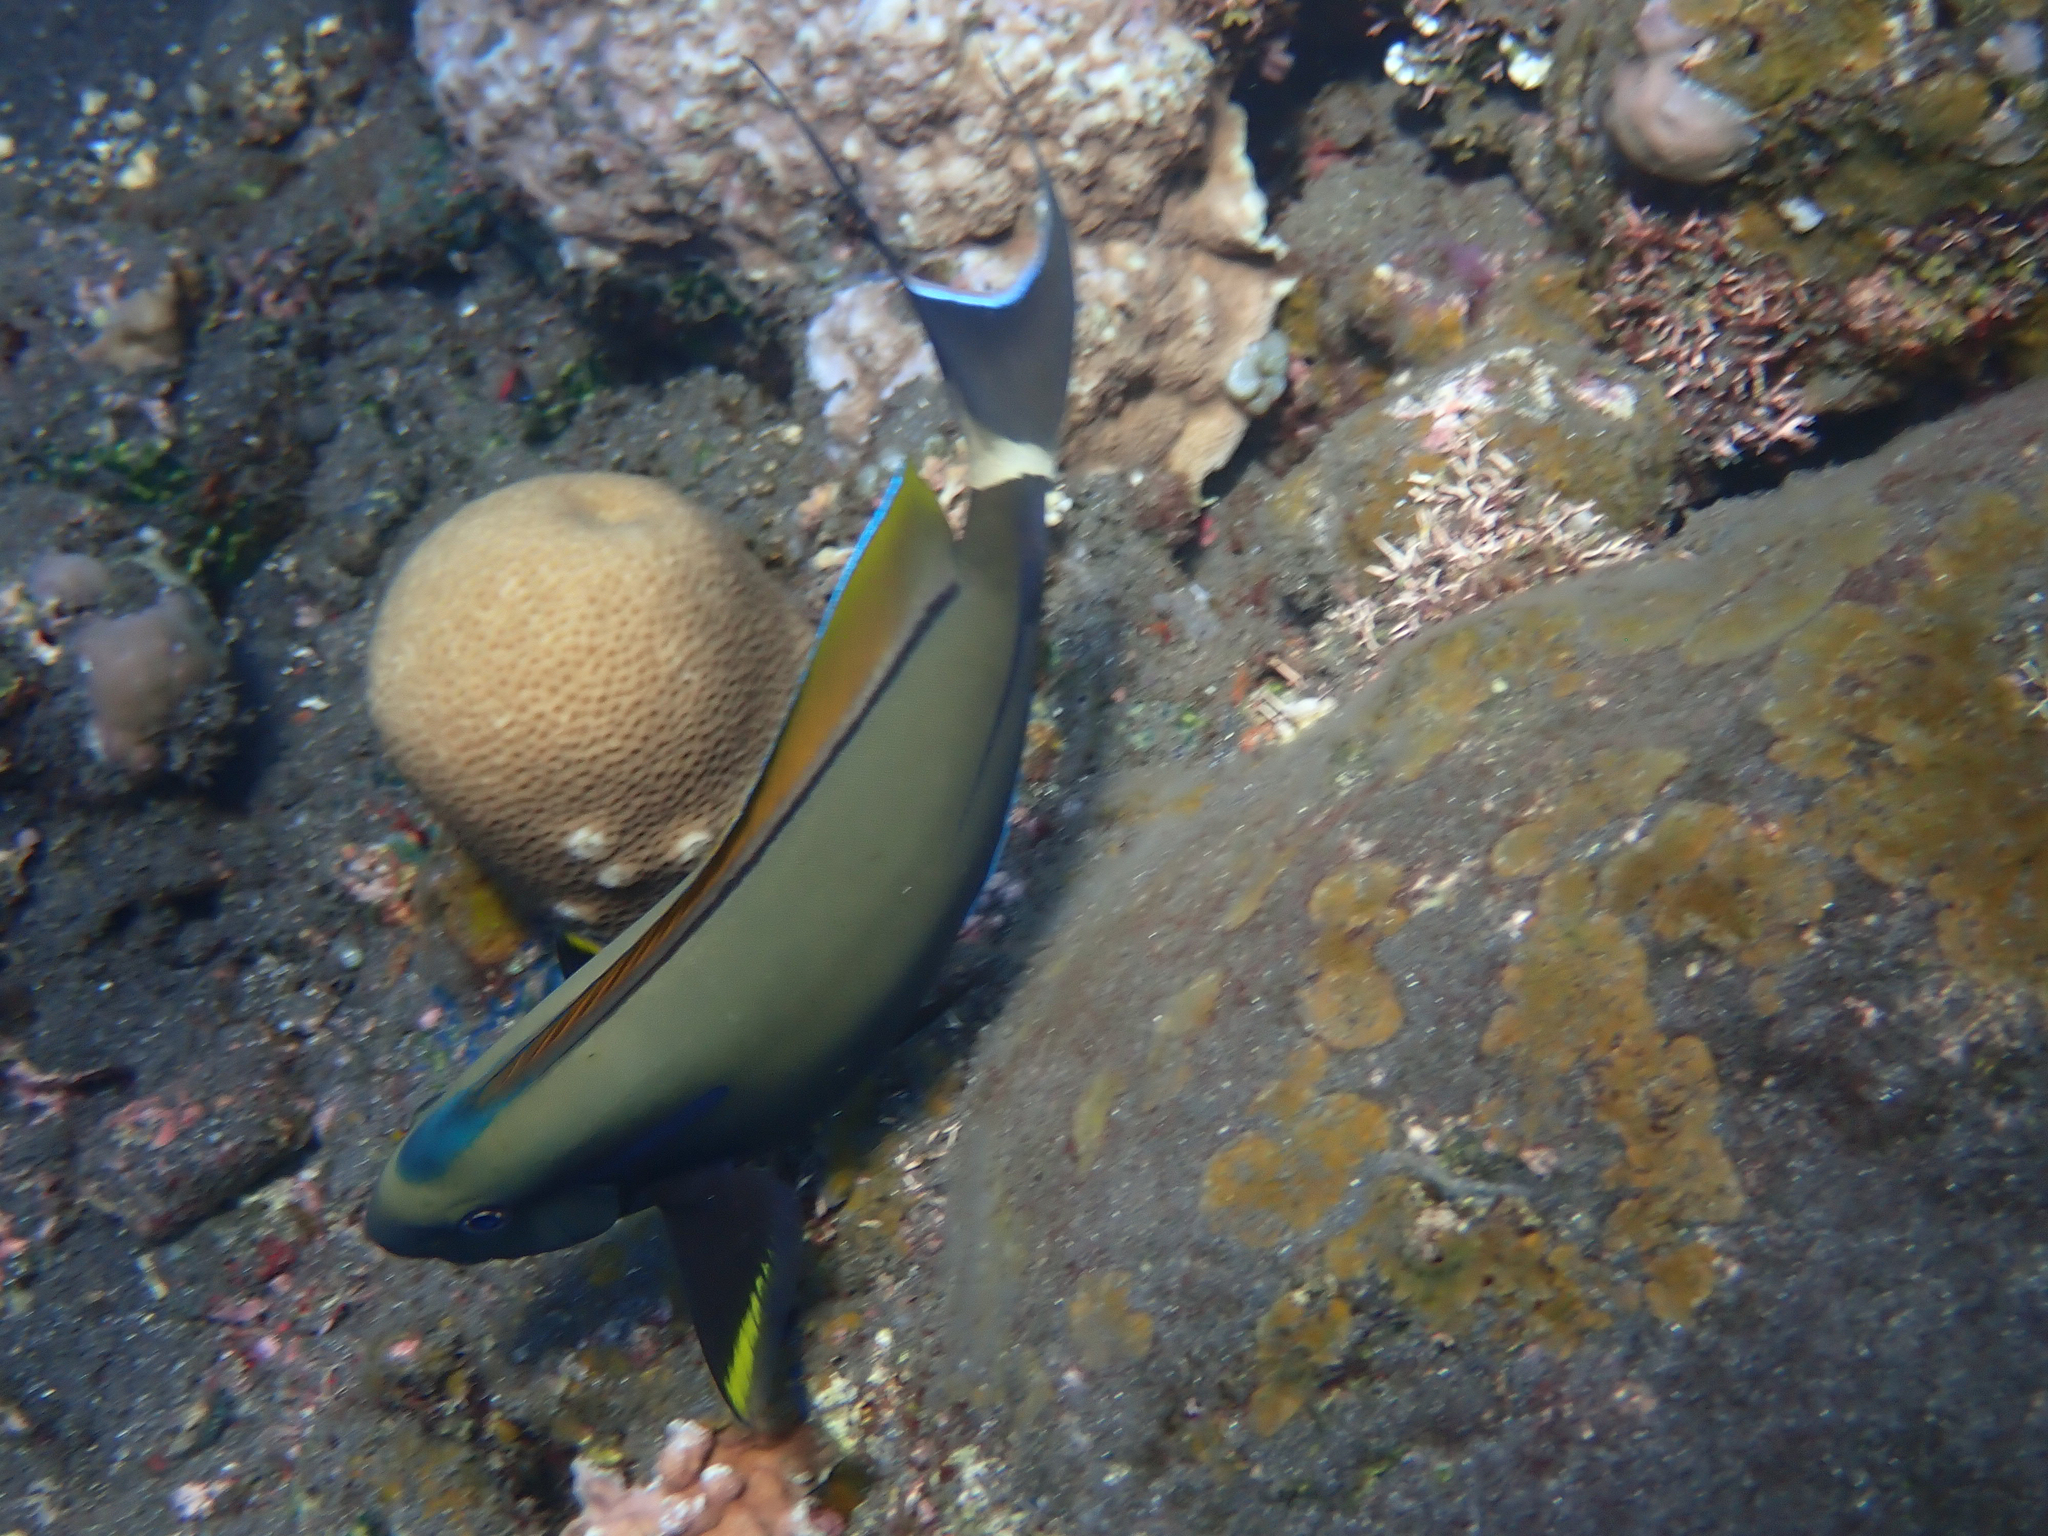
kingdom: Animalia
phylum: Chordata
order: Perciformes
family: Acanthuridae
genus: Acanthurus
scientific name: Acanthurus nigricauda
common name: Black-barred surgeonfish
